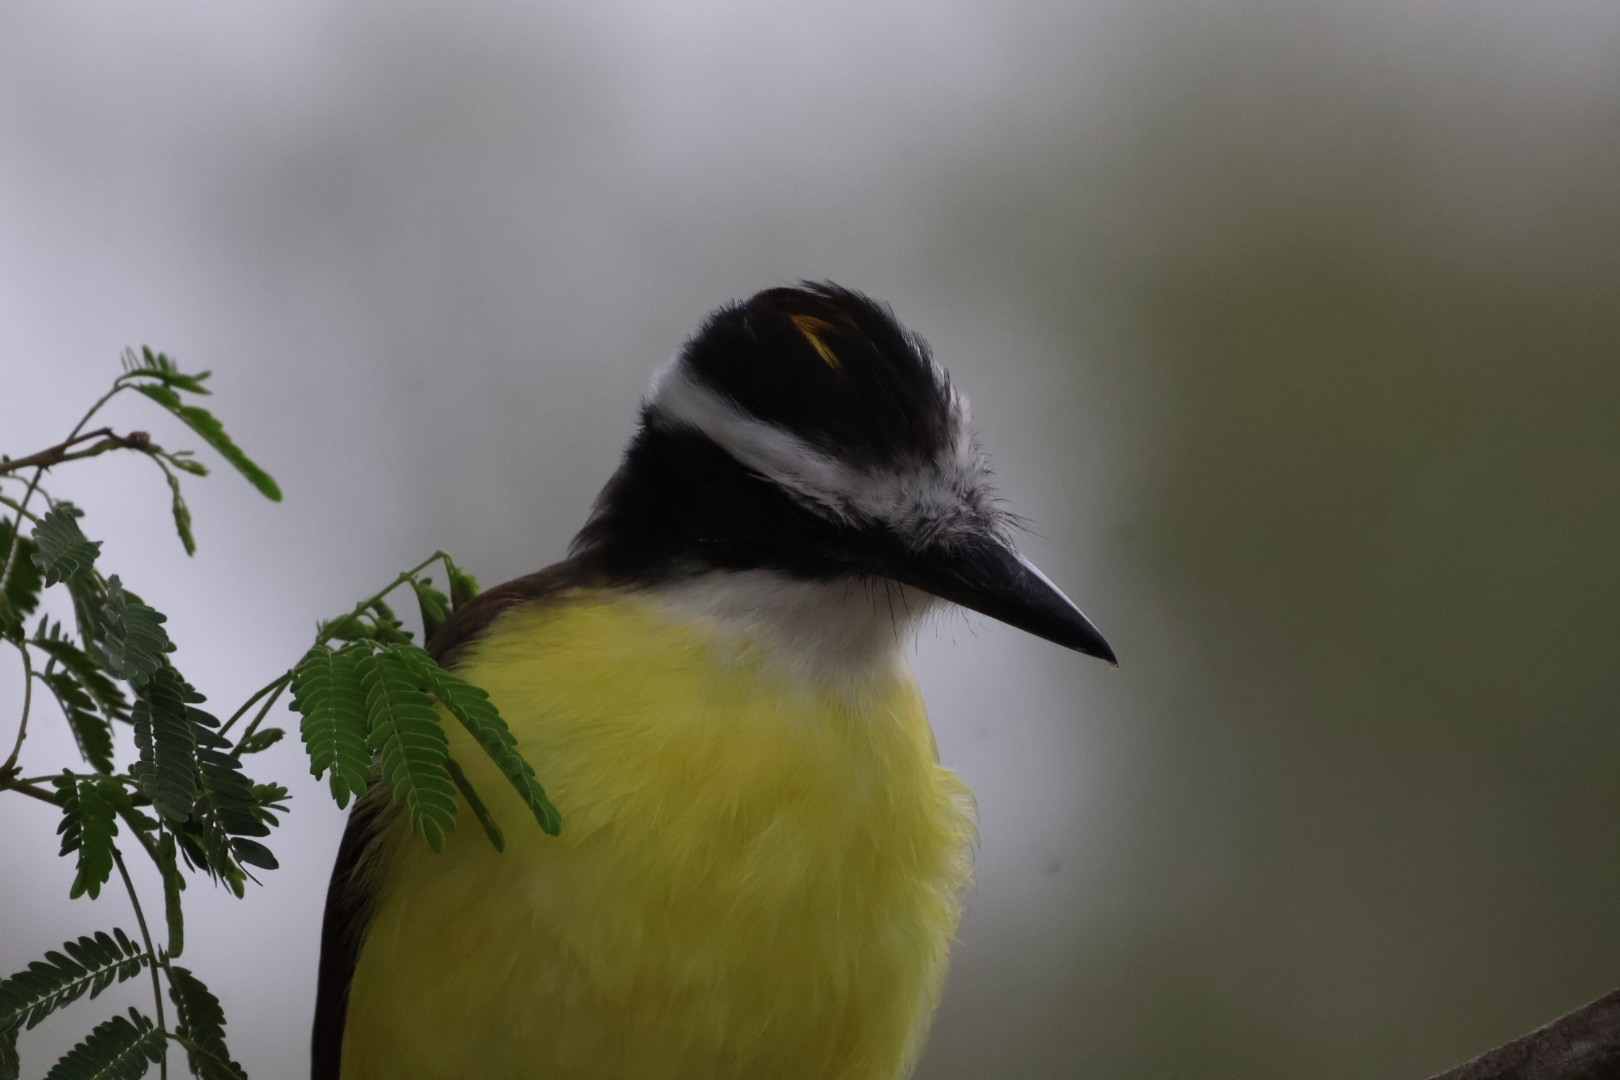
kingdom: Animalia
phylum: Chordata
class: Aves
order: Passeriformes
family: Tyrannidae
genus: Pitangus
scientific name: Pitangus sulphuratus
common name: Great kiskadee
